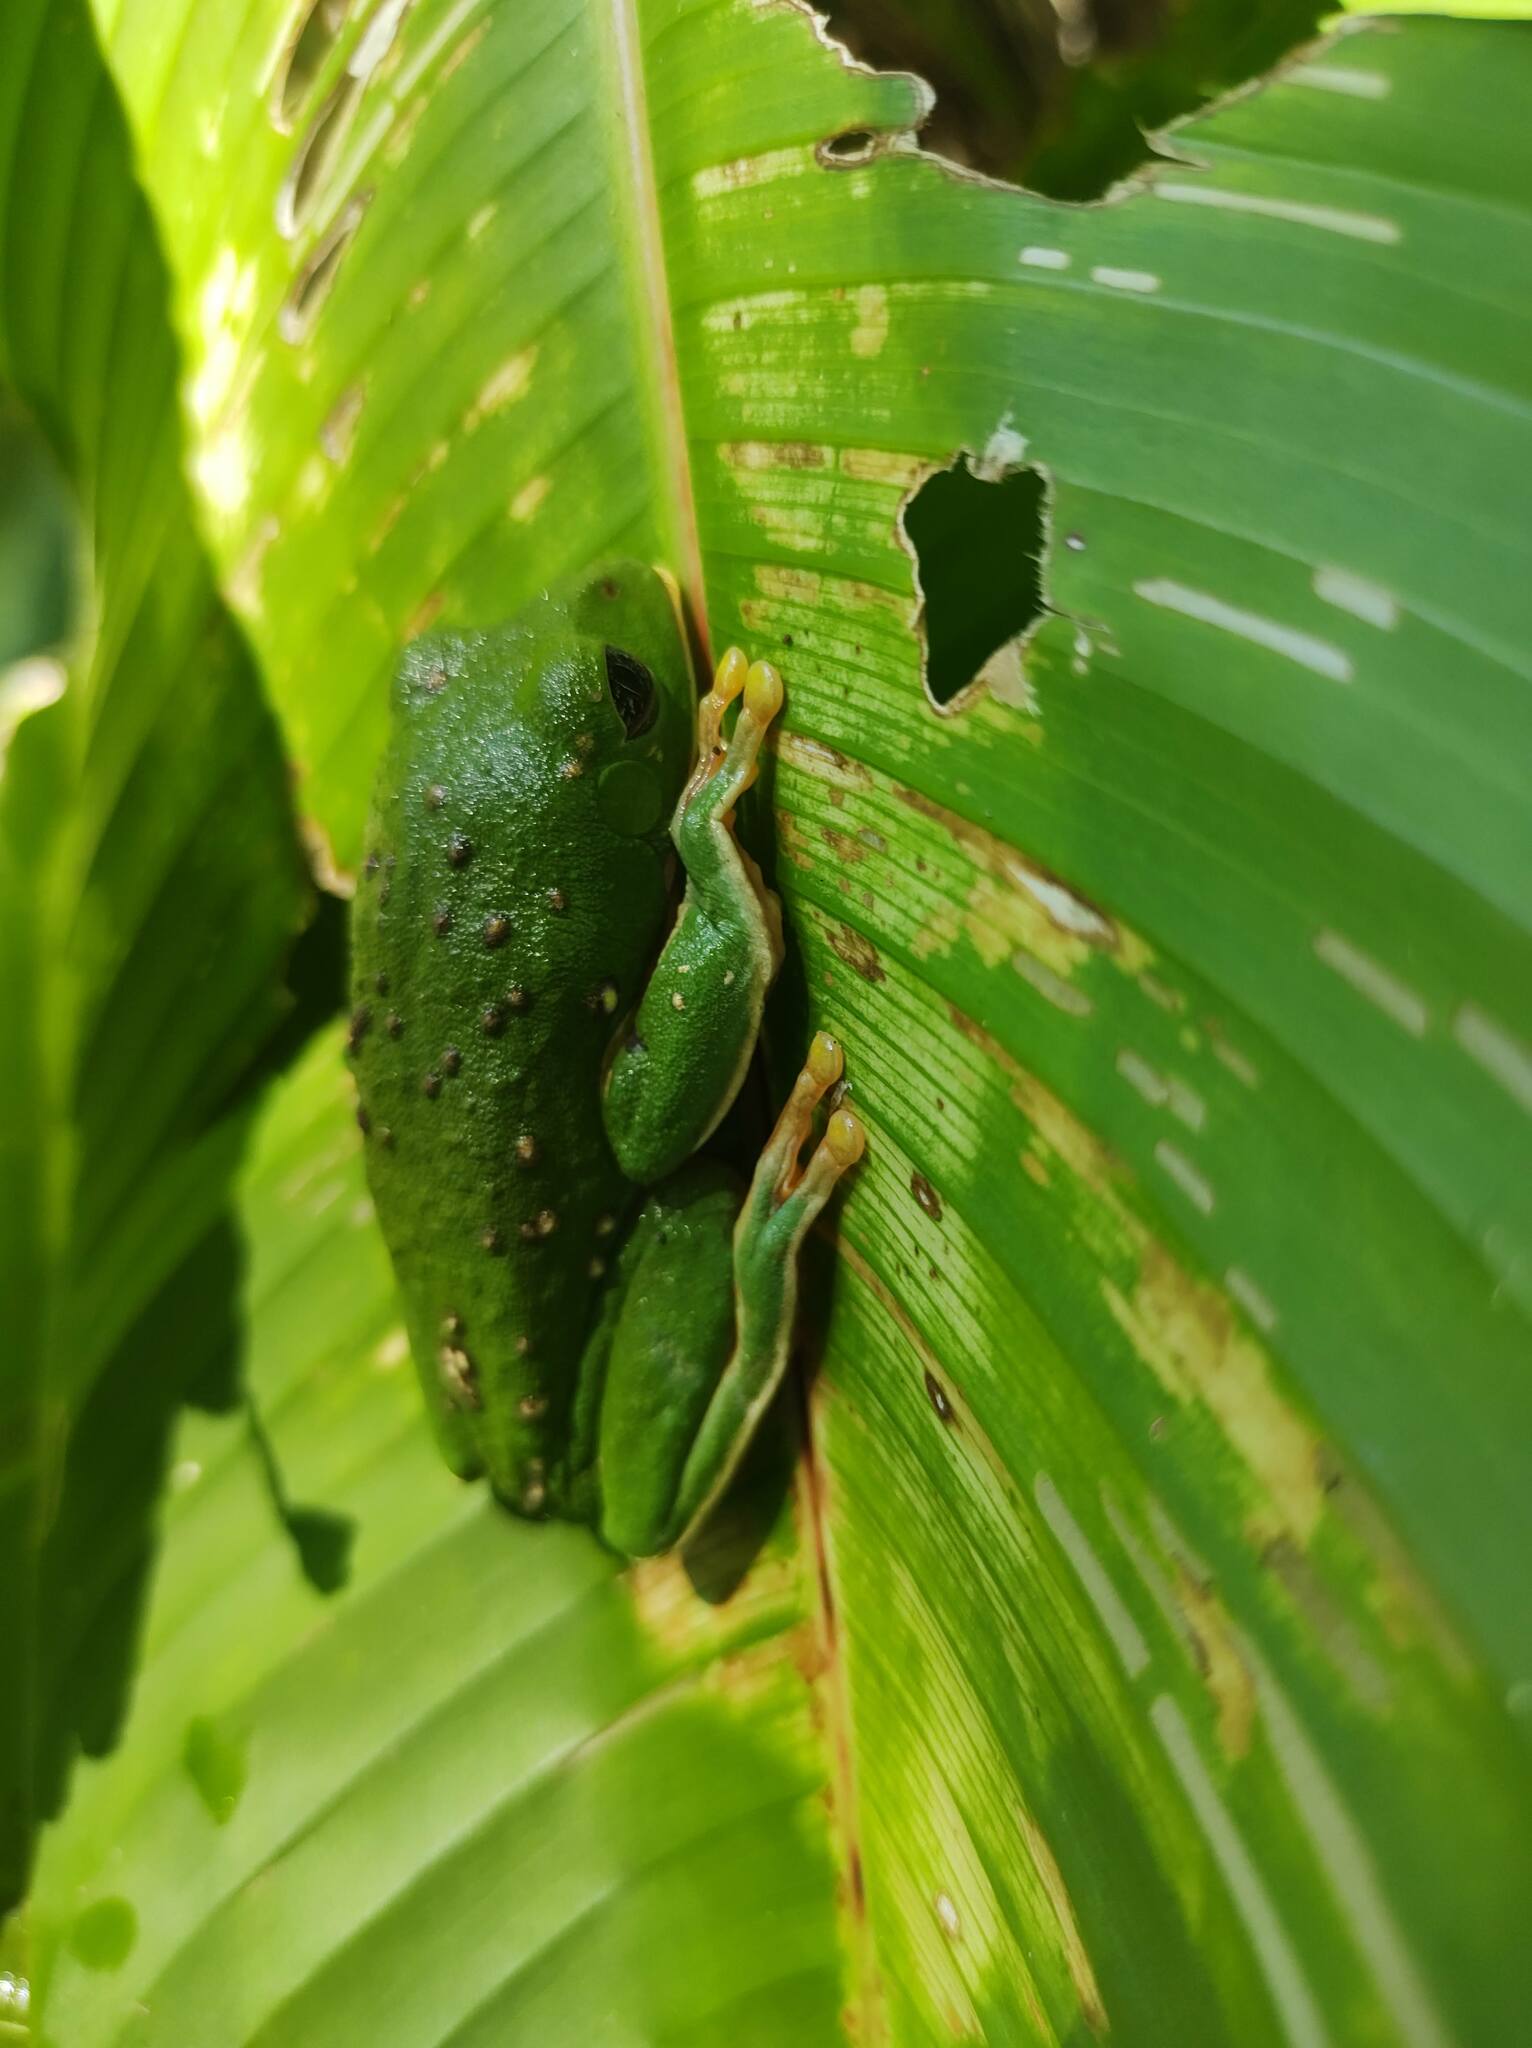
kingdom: Animalia
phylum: Chordata
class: Amphibia
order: Anura
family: Phyllomedusidae
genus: Agalychnis
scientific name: Agalychnis dacnicolor
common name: Mexican giant tree frog
